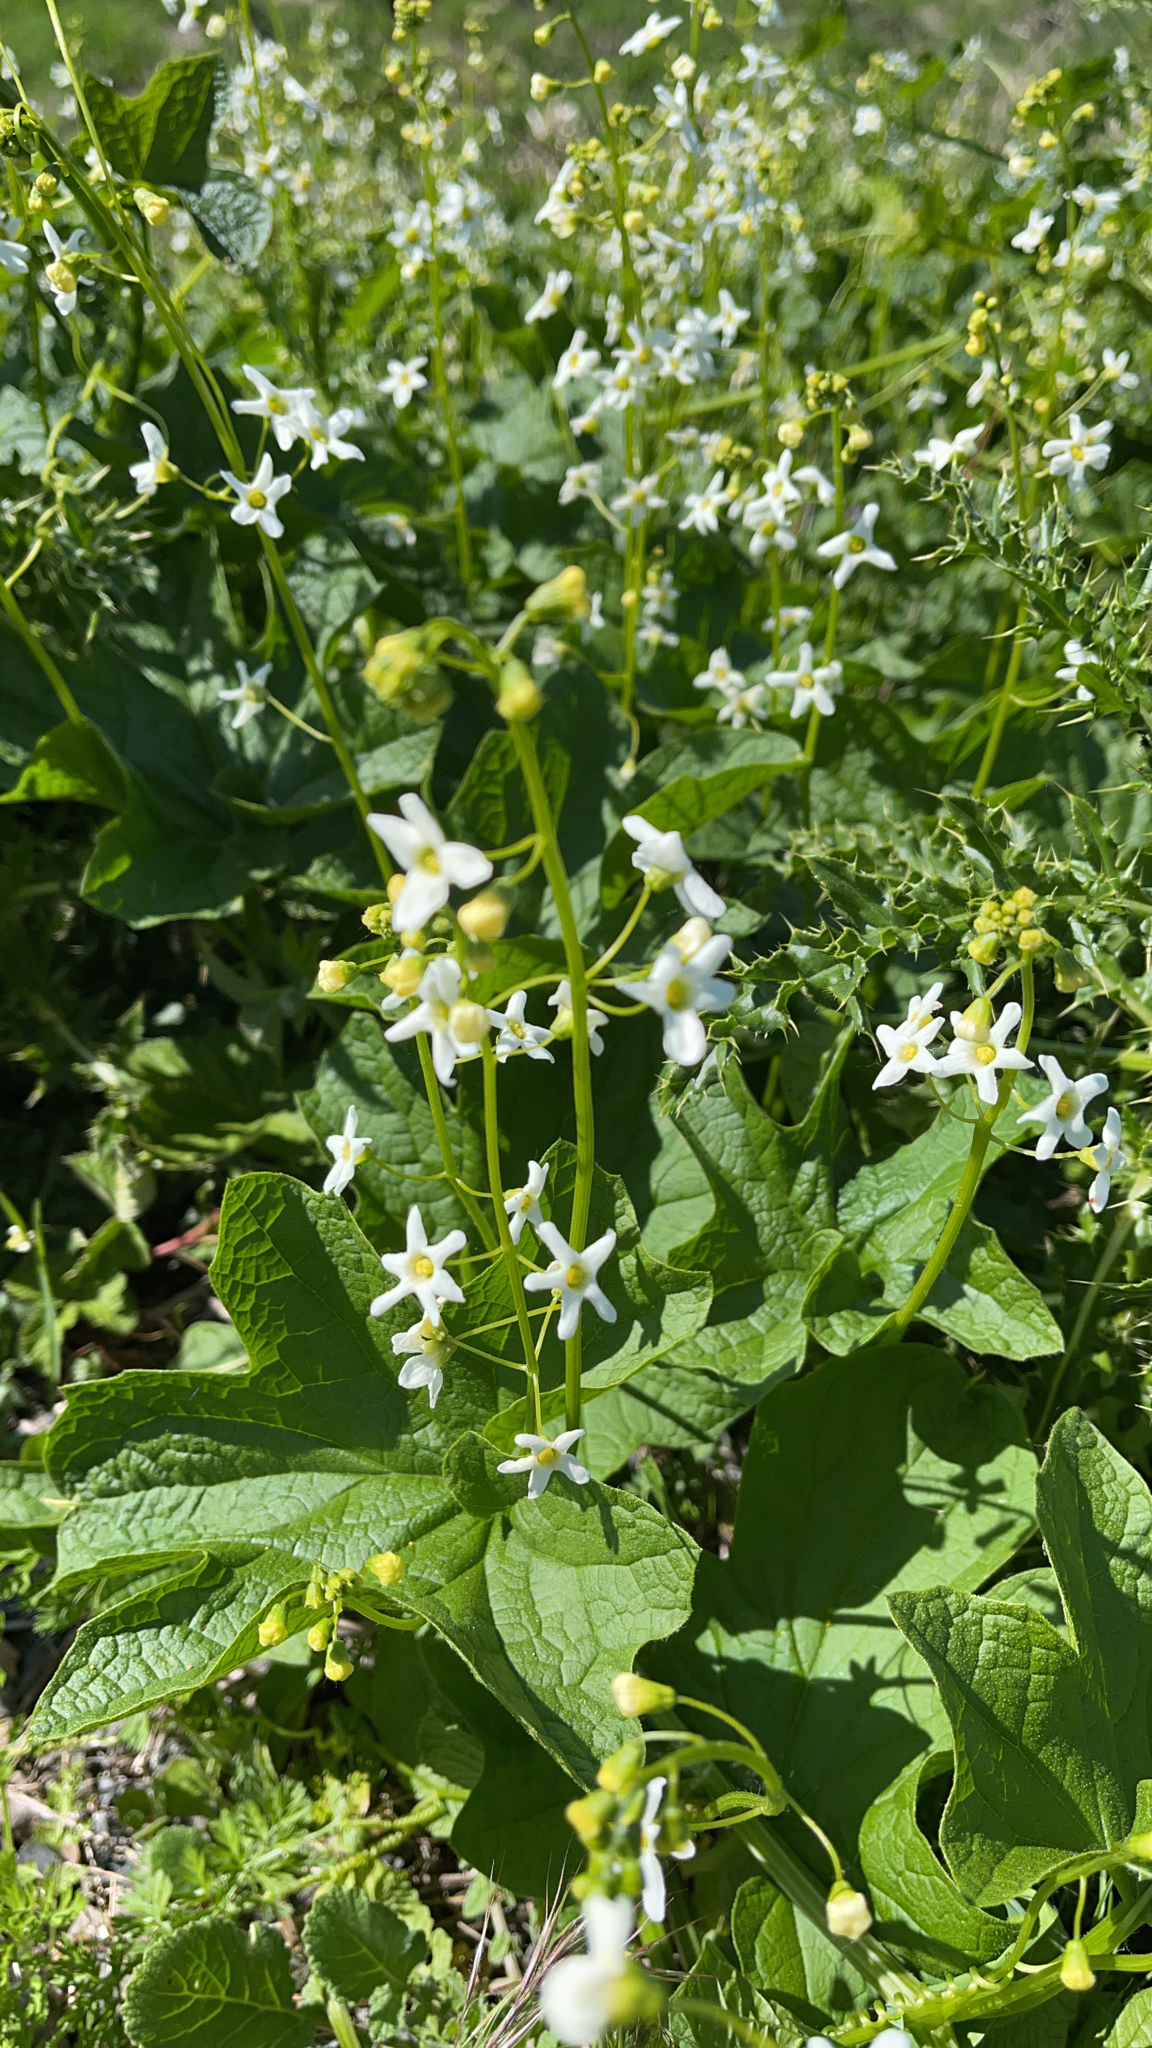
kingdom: Plantae
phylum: Tracheophyta
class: Magnoliopsida
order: Cucurbitales
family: Cucurbitaceae
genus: Marah
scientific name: Marah oregana
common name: Coastal manroot
